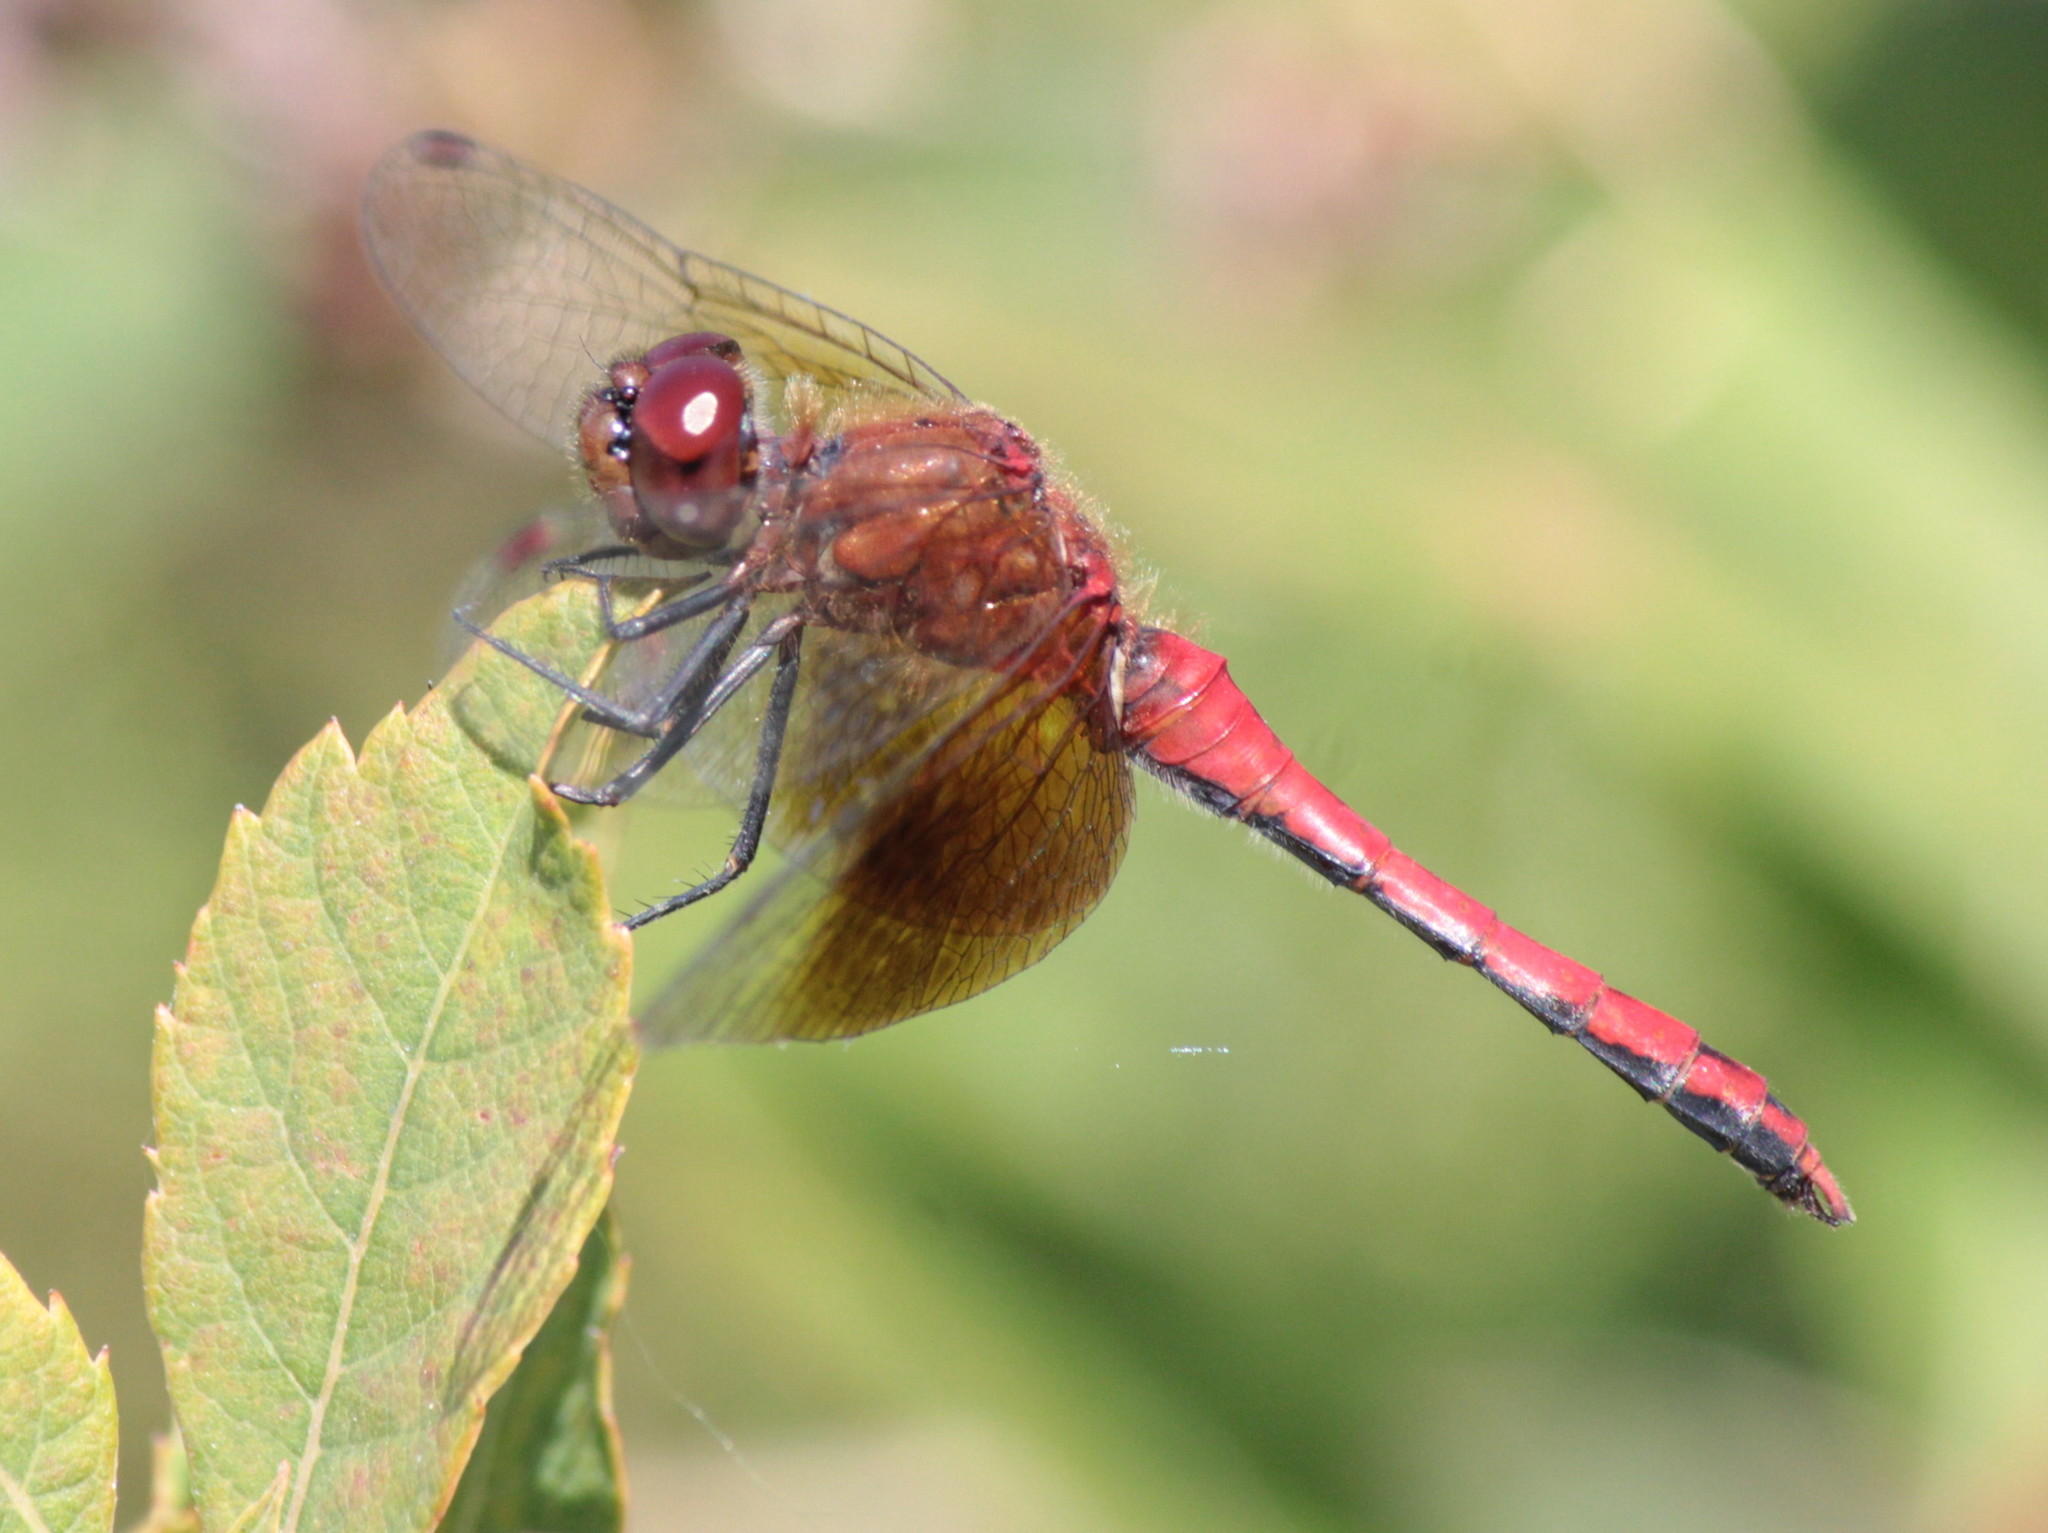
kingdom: Animalia
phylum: Arthropoda
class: Insecta
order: Odonata
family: Libellulidae
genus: Sympetrum
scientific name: Sympetrum semicinctum
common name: Band-winged meadowhawk
